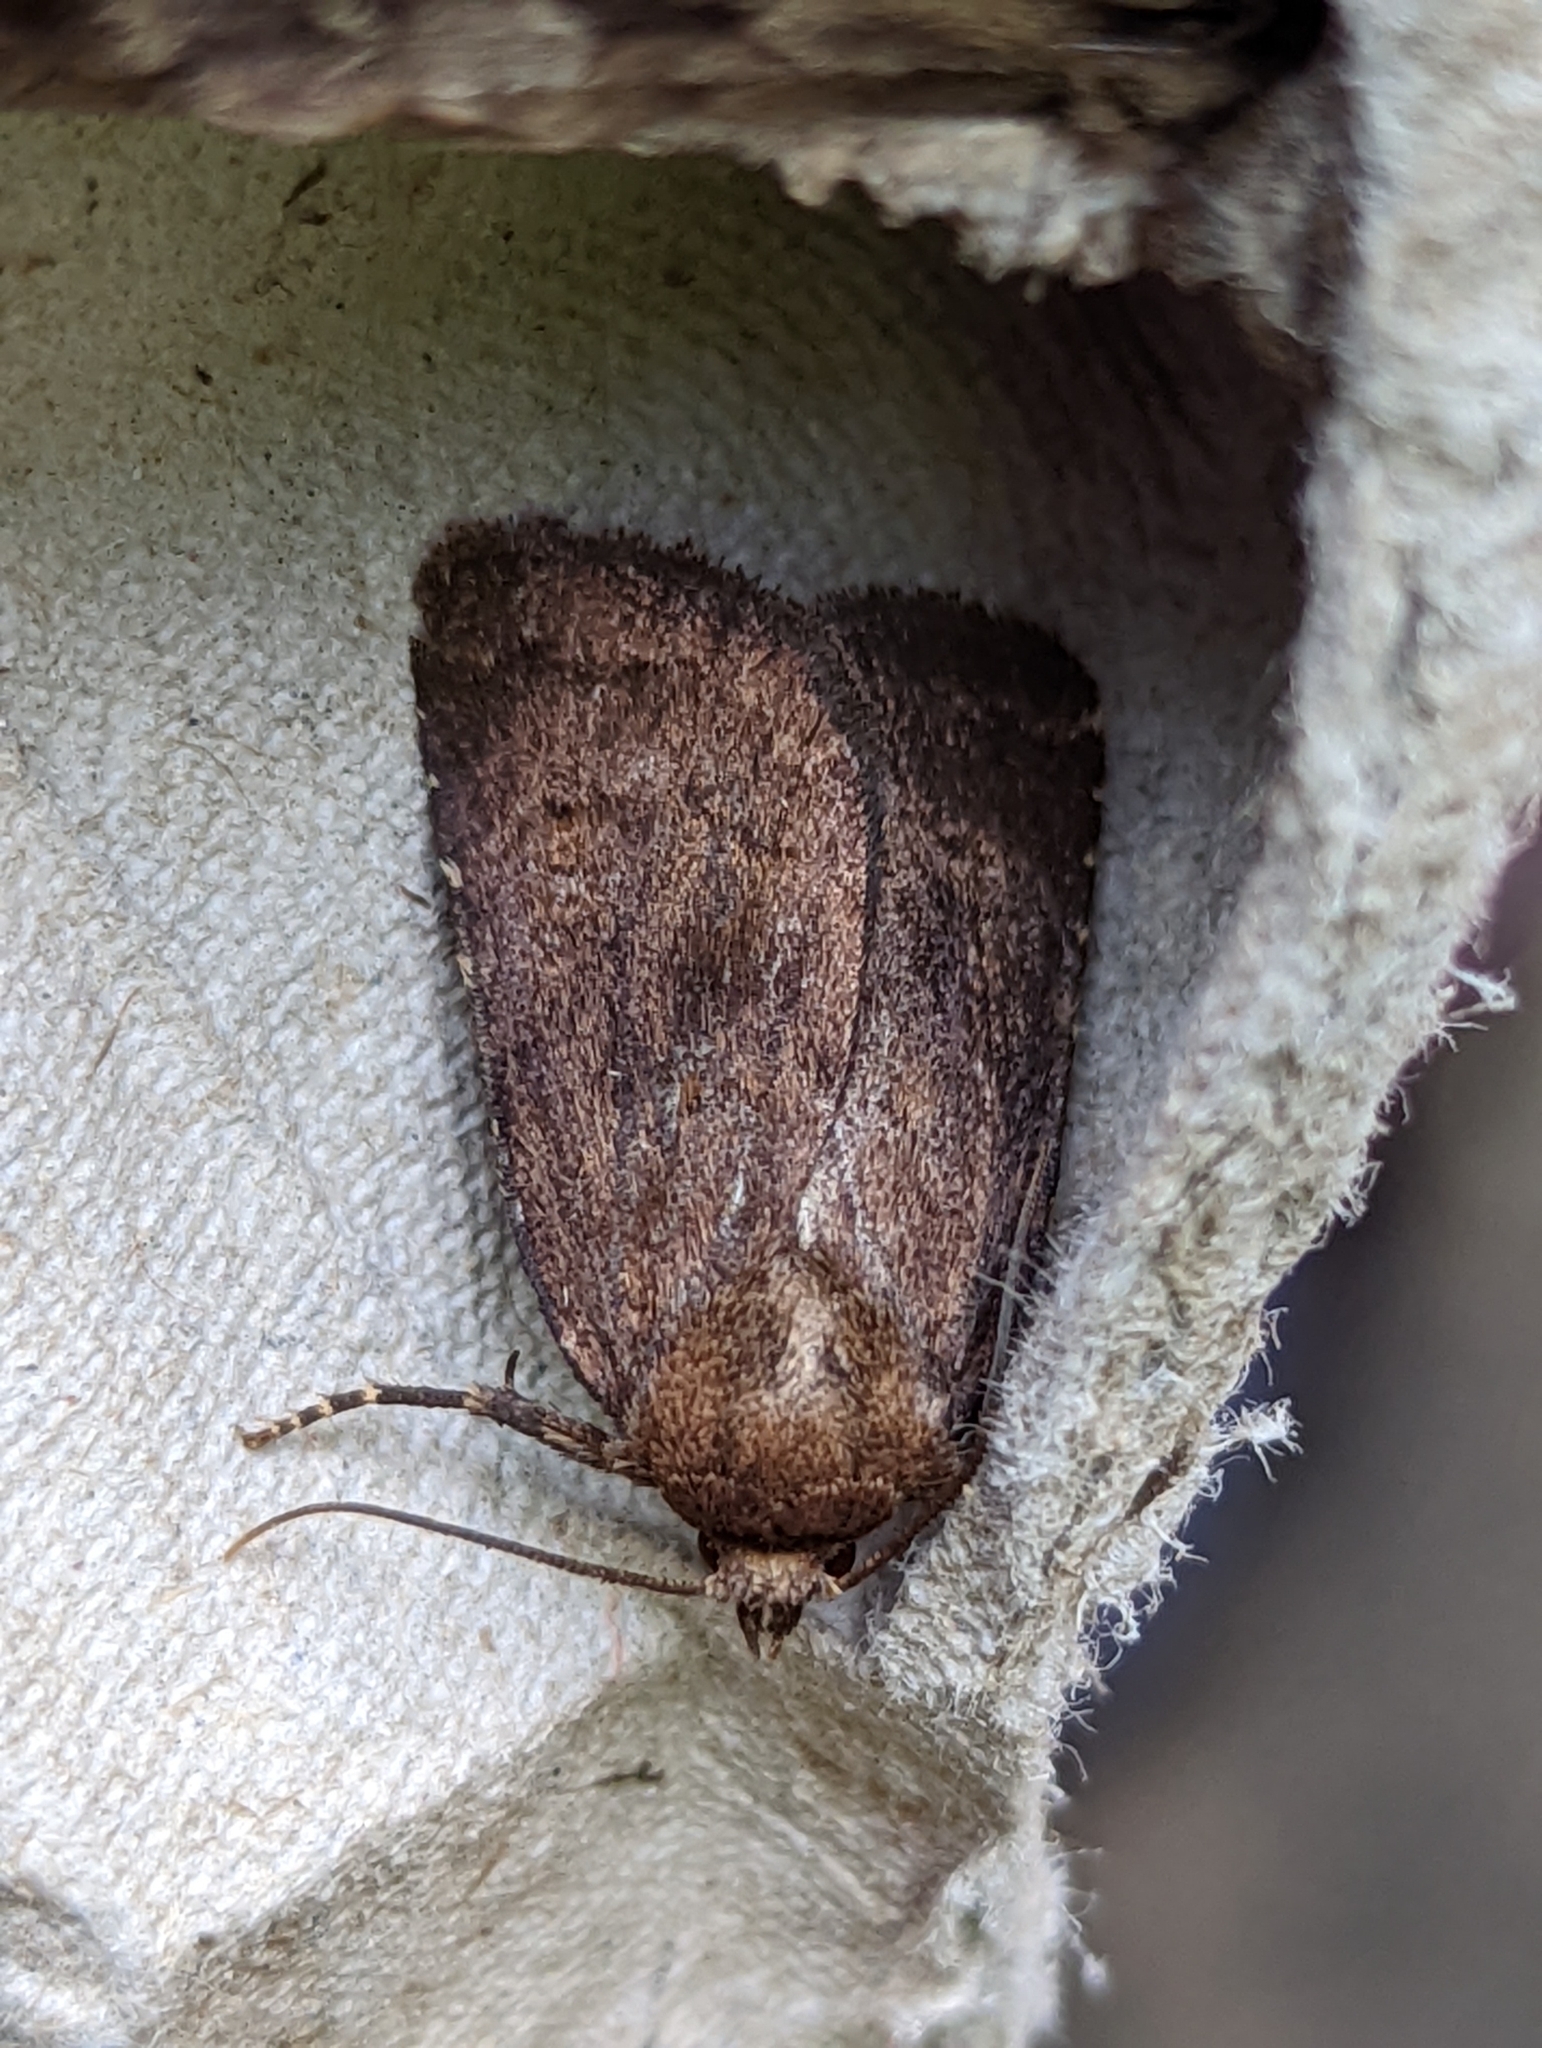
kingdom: Animalia
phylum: Arthropoda
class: Insecta
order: Lepidoptera
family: Noctuidae
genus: Charanyca
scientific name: Charanyca ferruginea
